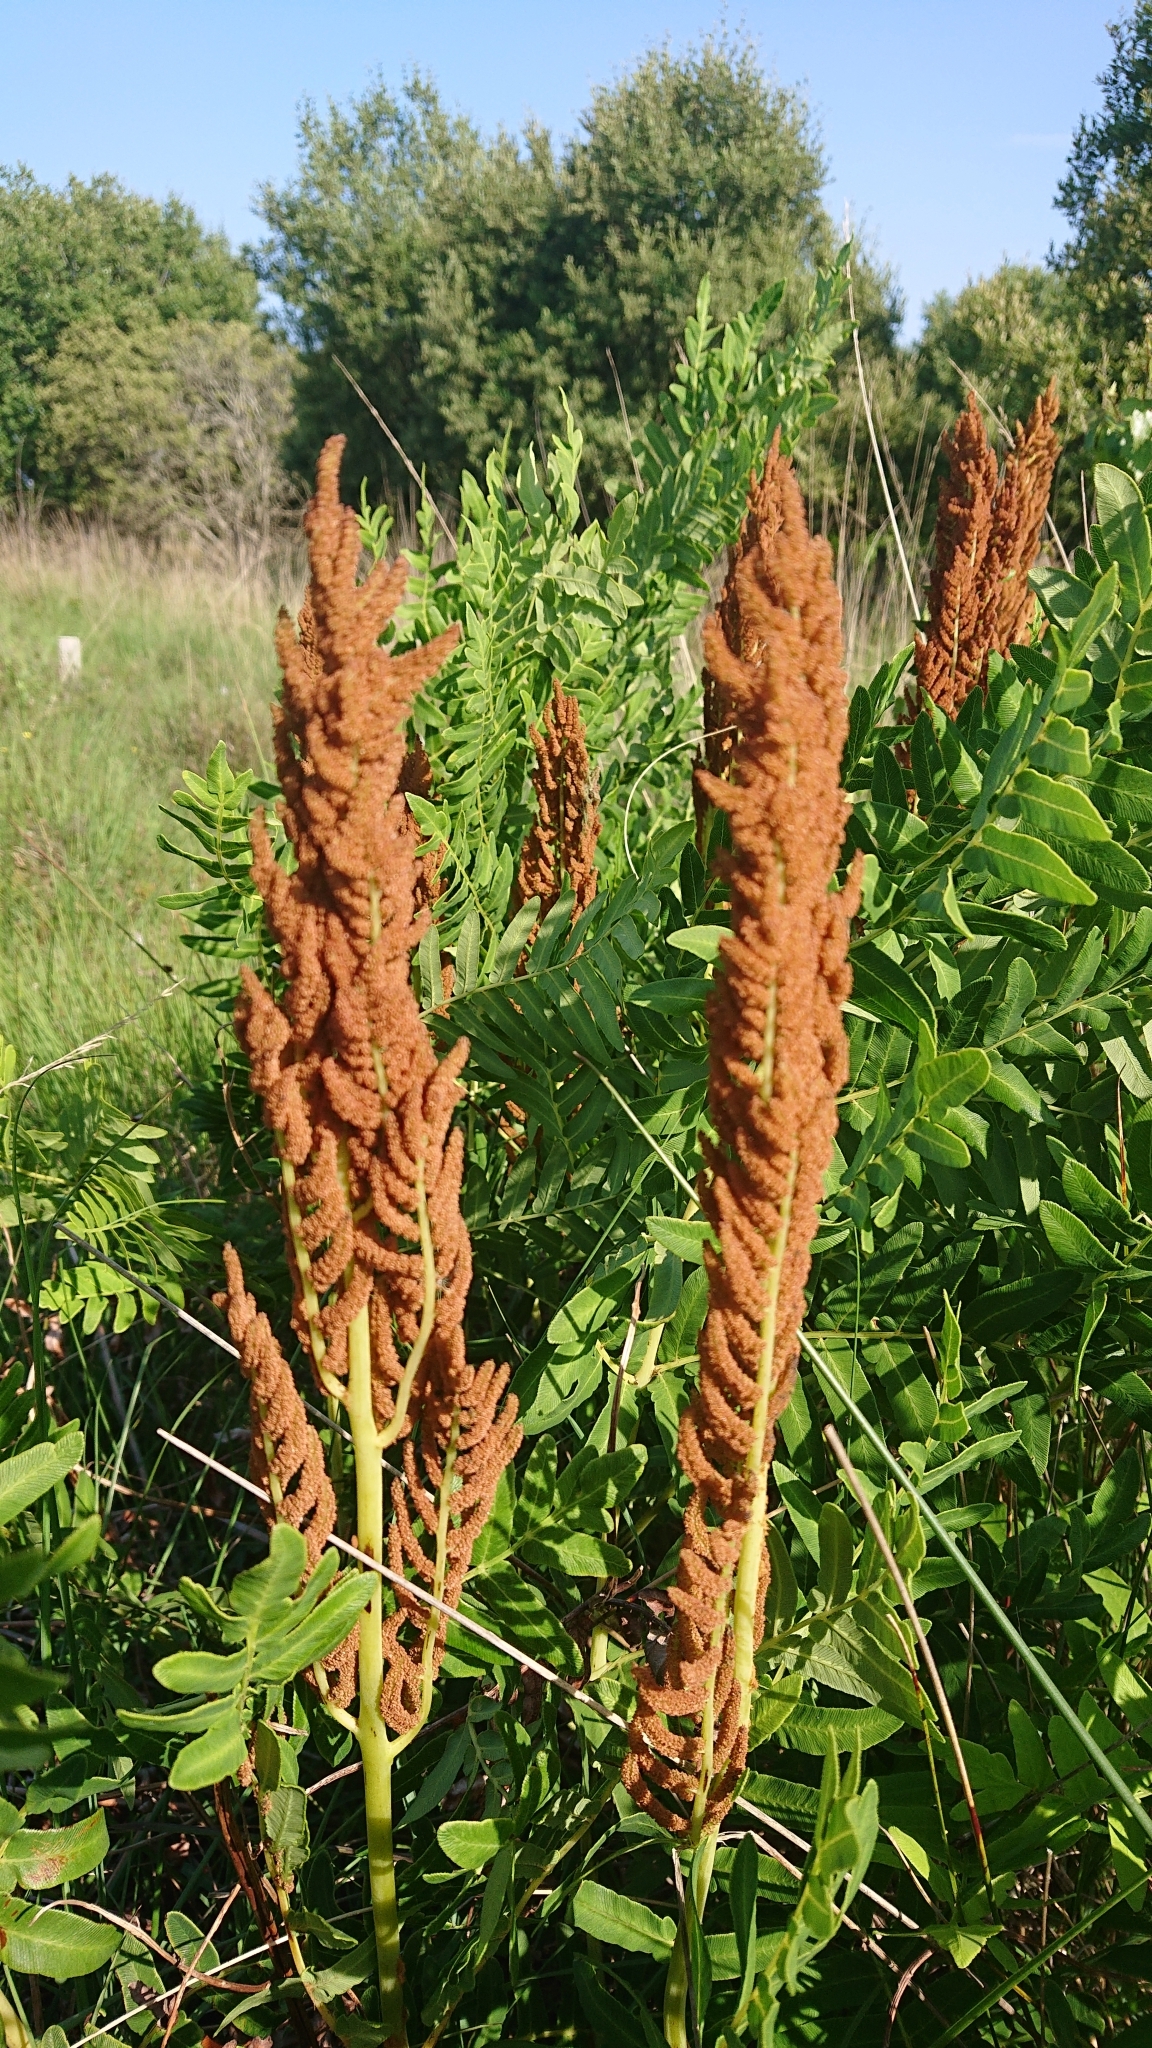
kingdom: Plantae
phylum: Tracheophyta
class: Polypodiopsida
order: Osmundales
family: Osmundaceae
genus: Osmunda
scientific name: Osmunda regalis
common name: Royal fern
